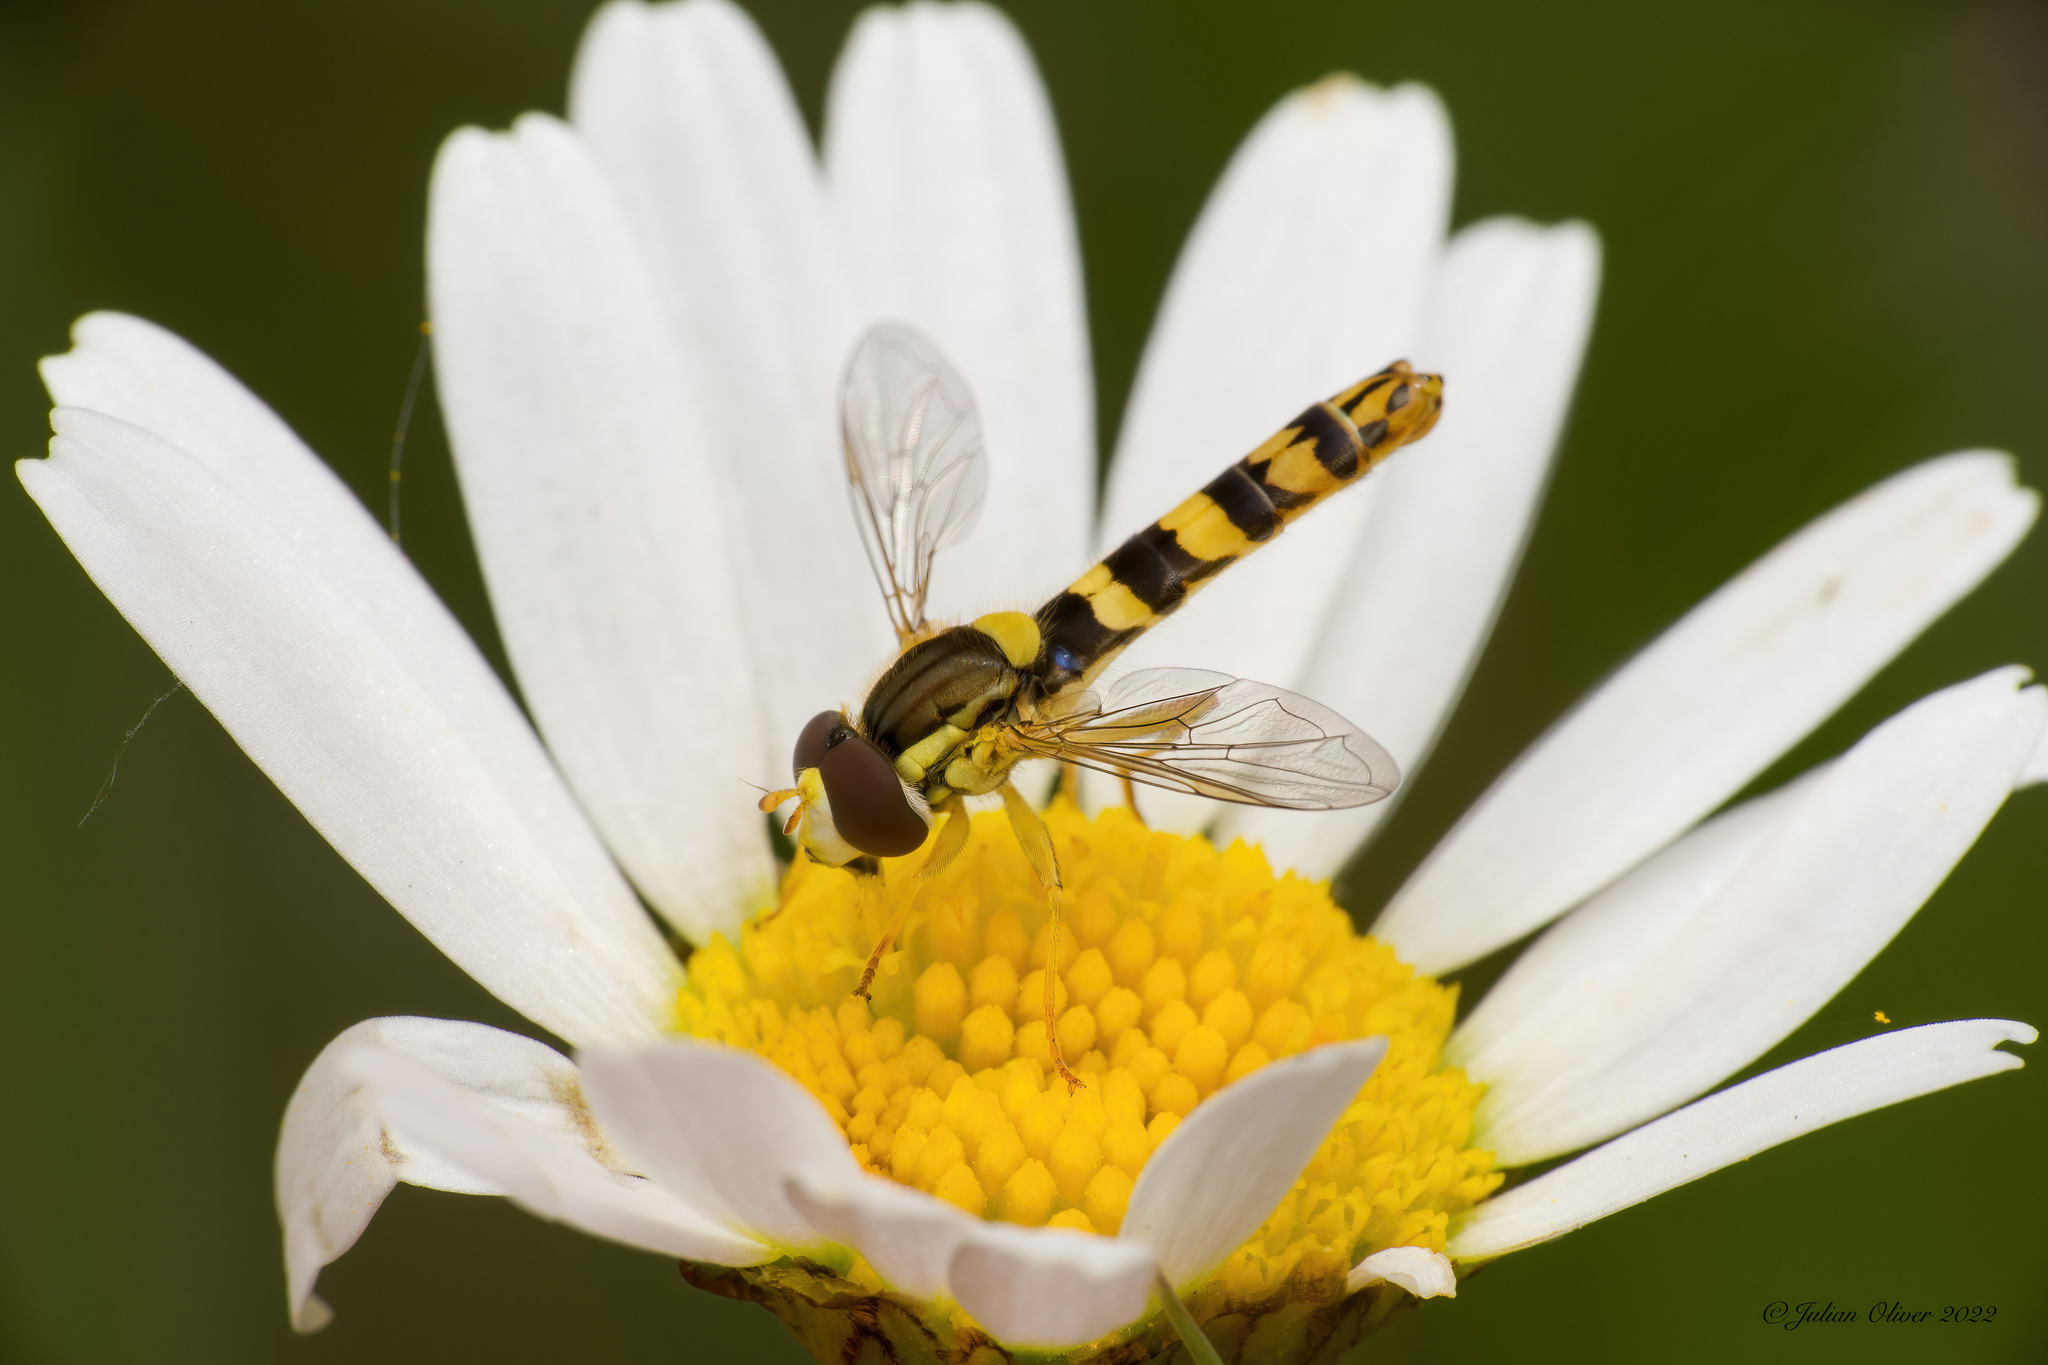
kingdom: Animalia
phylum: Arthropoda
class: Insecta
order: Diptera
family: Syrphidae
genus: Sphaerophoria
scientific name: Sphaerophoria scripta
